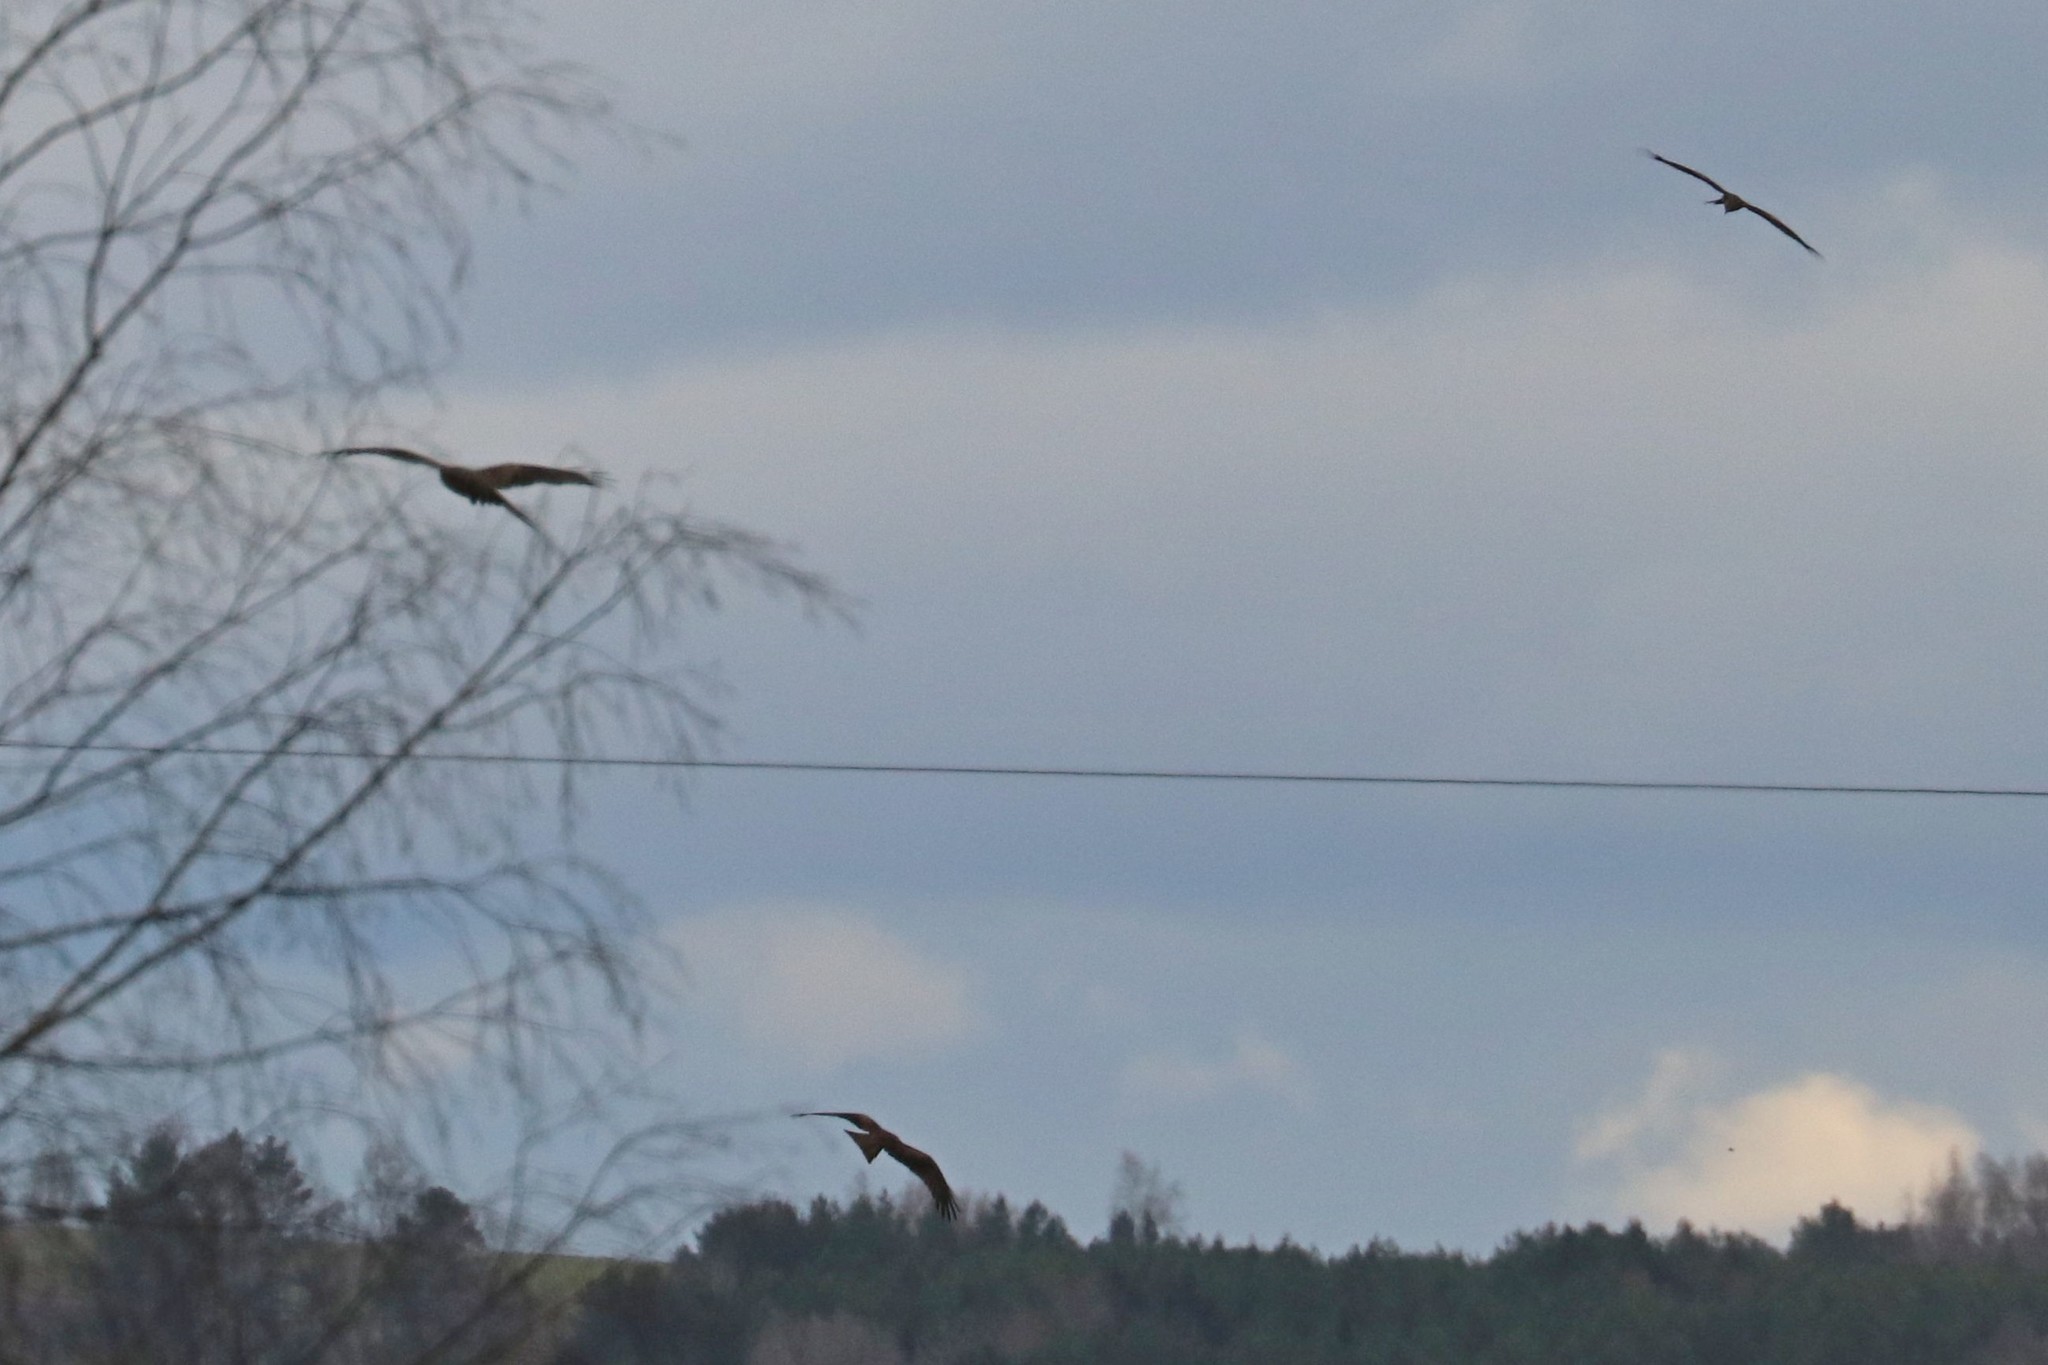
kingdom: Animalia
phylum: Chordata
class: Aves
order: Accipitriformes
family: Accipitridae
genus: Milvus
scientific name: Milvus migrans
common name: Black kite
